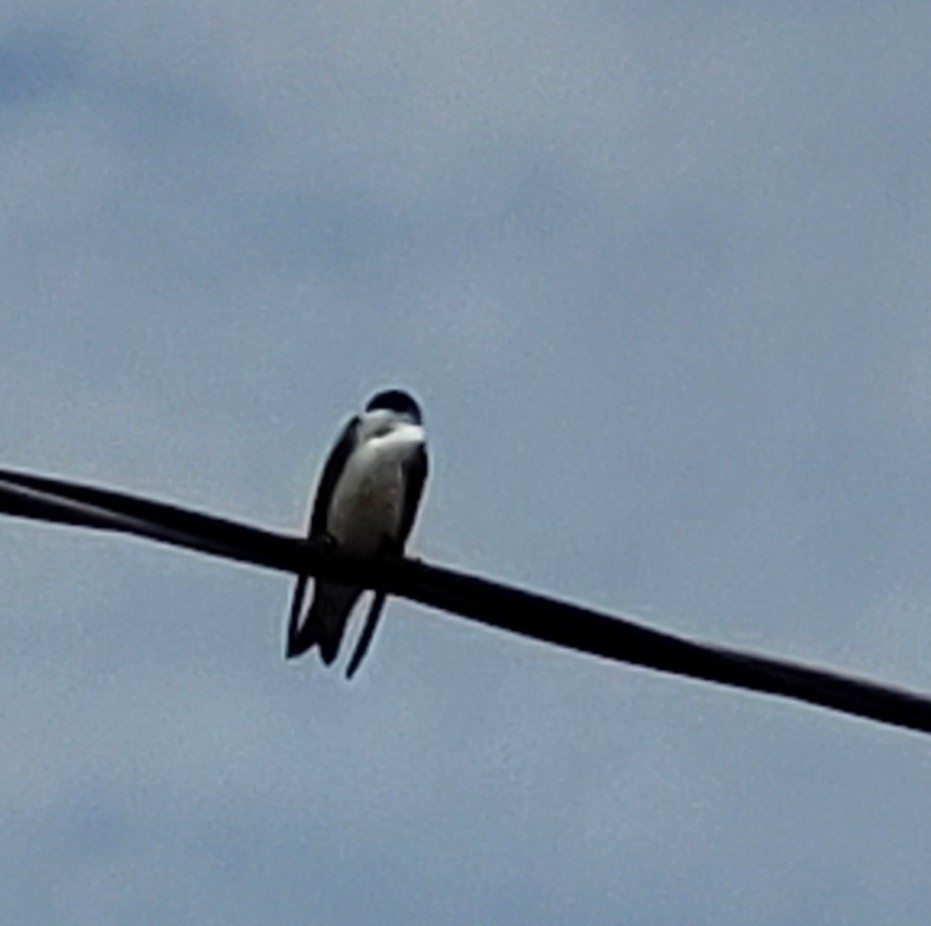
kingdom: Animalia
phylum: Chordata
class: Aves
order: Passeriformes
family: Hirundinidae
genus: Tachycineta
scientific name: Tachycineta bicolor
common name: Tree swallow
